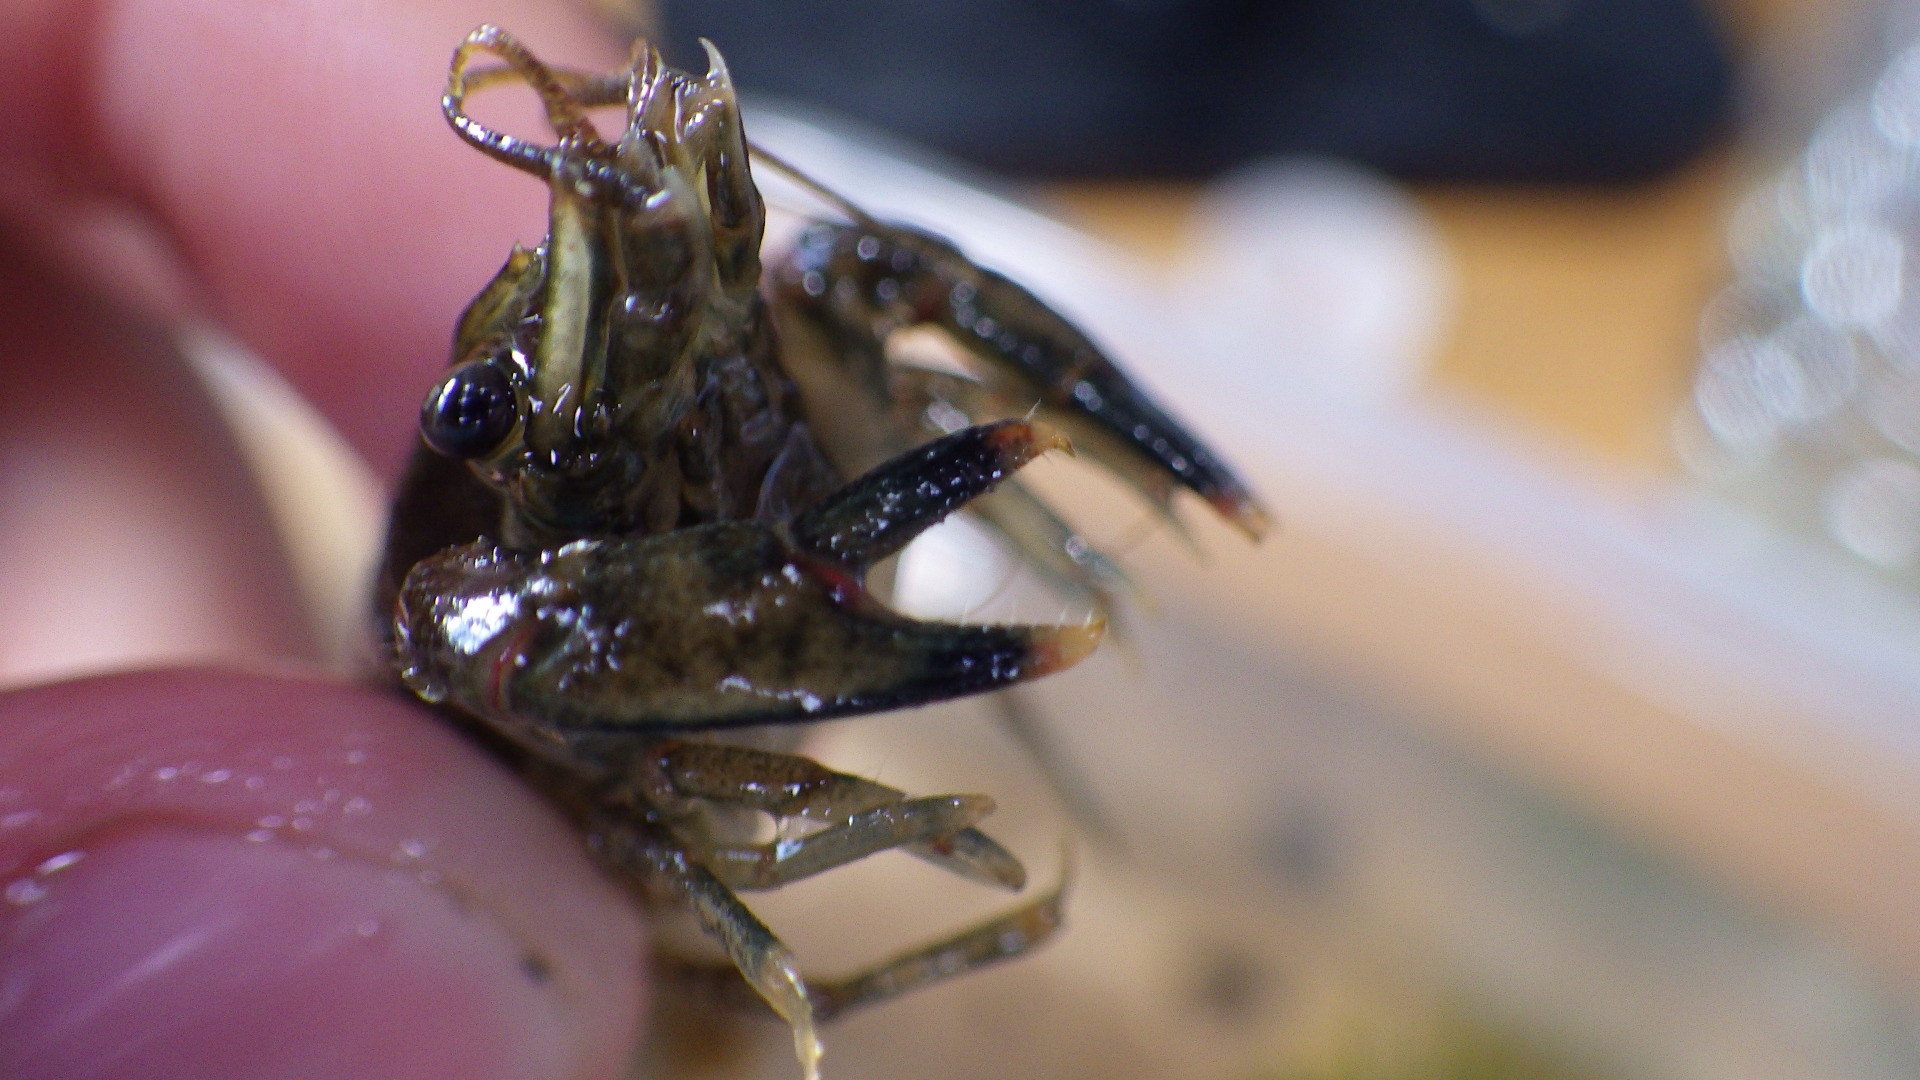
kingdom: Animalia
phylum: Arthropoda
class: Malacostraca
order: Decapoda
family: Cambaridae
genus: Faxonius
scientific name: Faxonius limosus
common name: American crayfish
